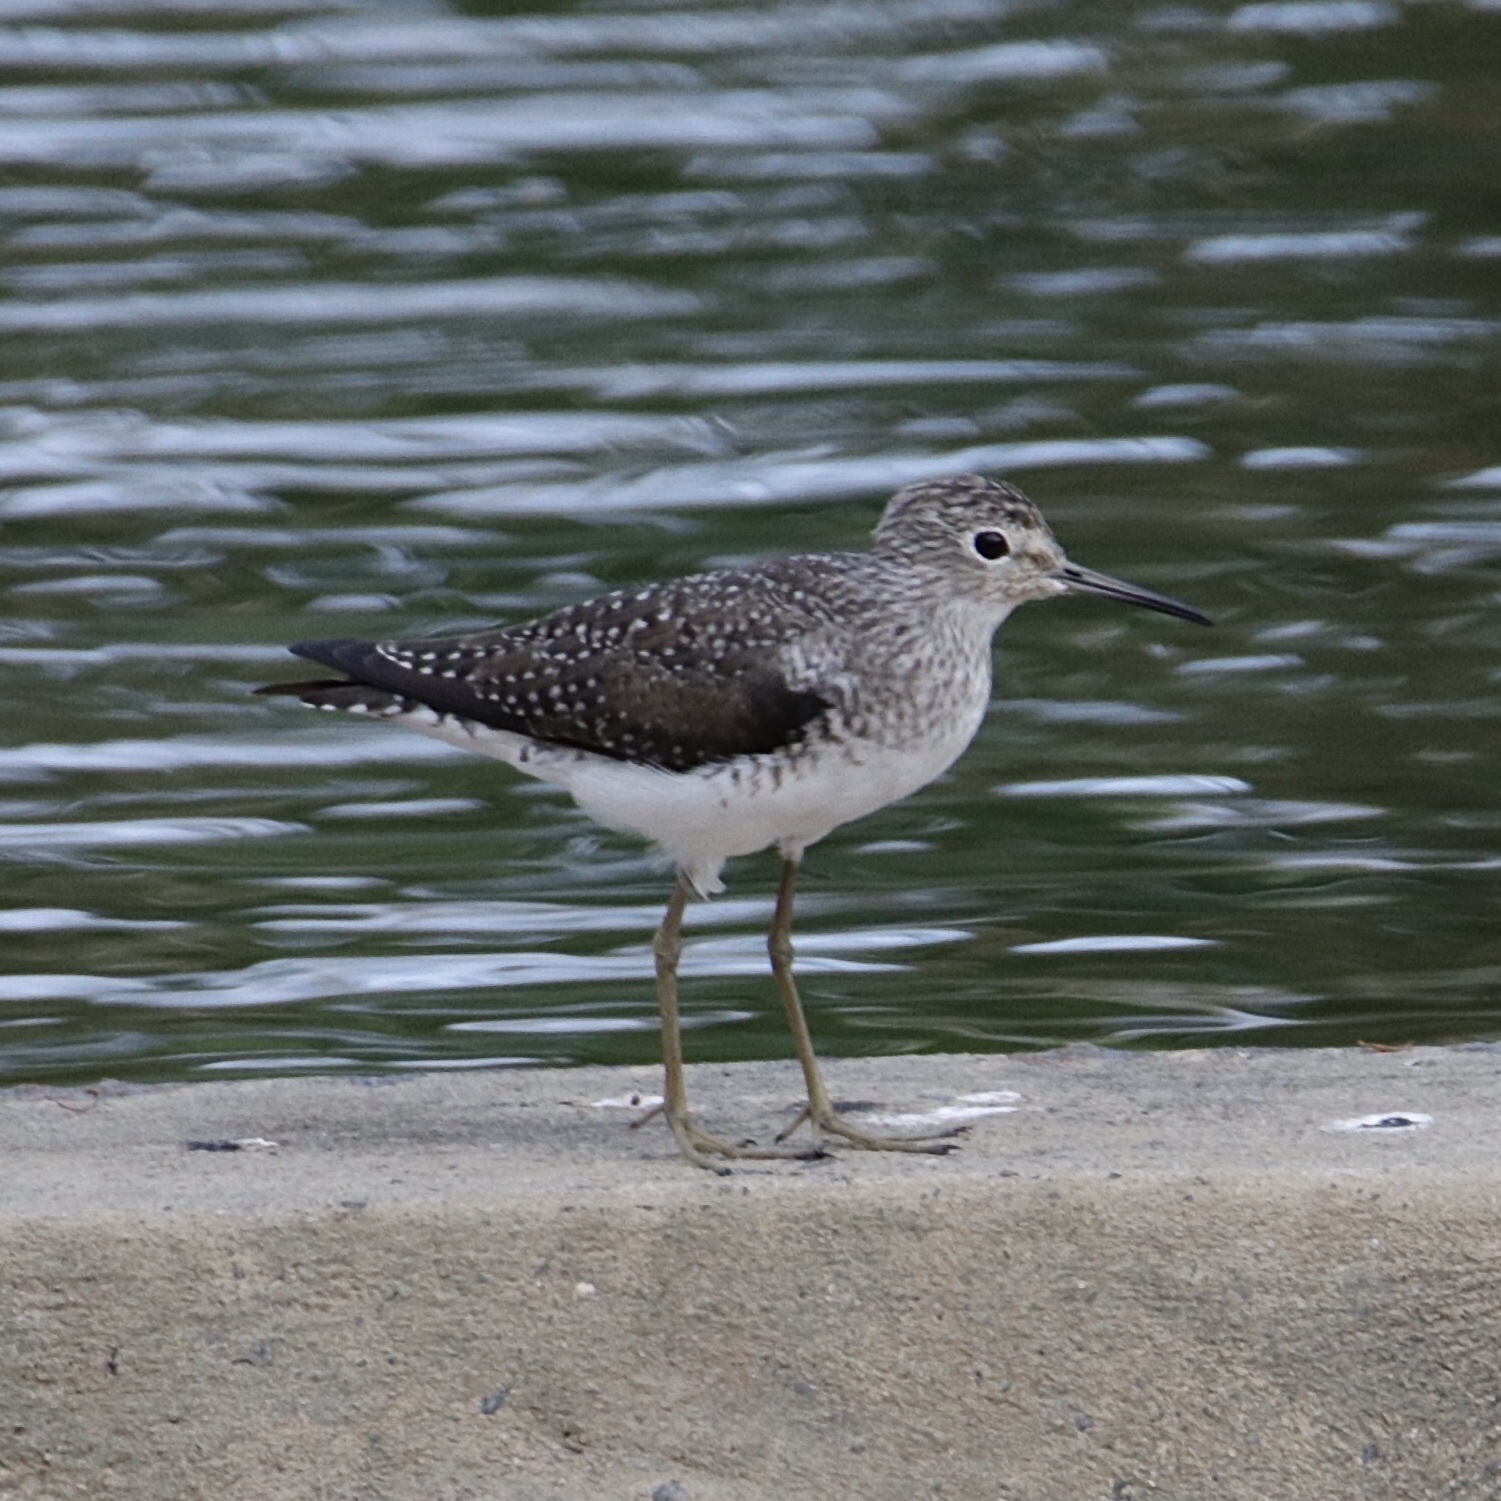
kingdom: Animalia
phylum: Chordata
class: Aves
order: Charadriiformes
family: Scolopacidae
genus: Tringa
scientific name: Tringa solitaria
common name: Solitary sandpiper
